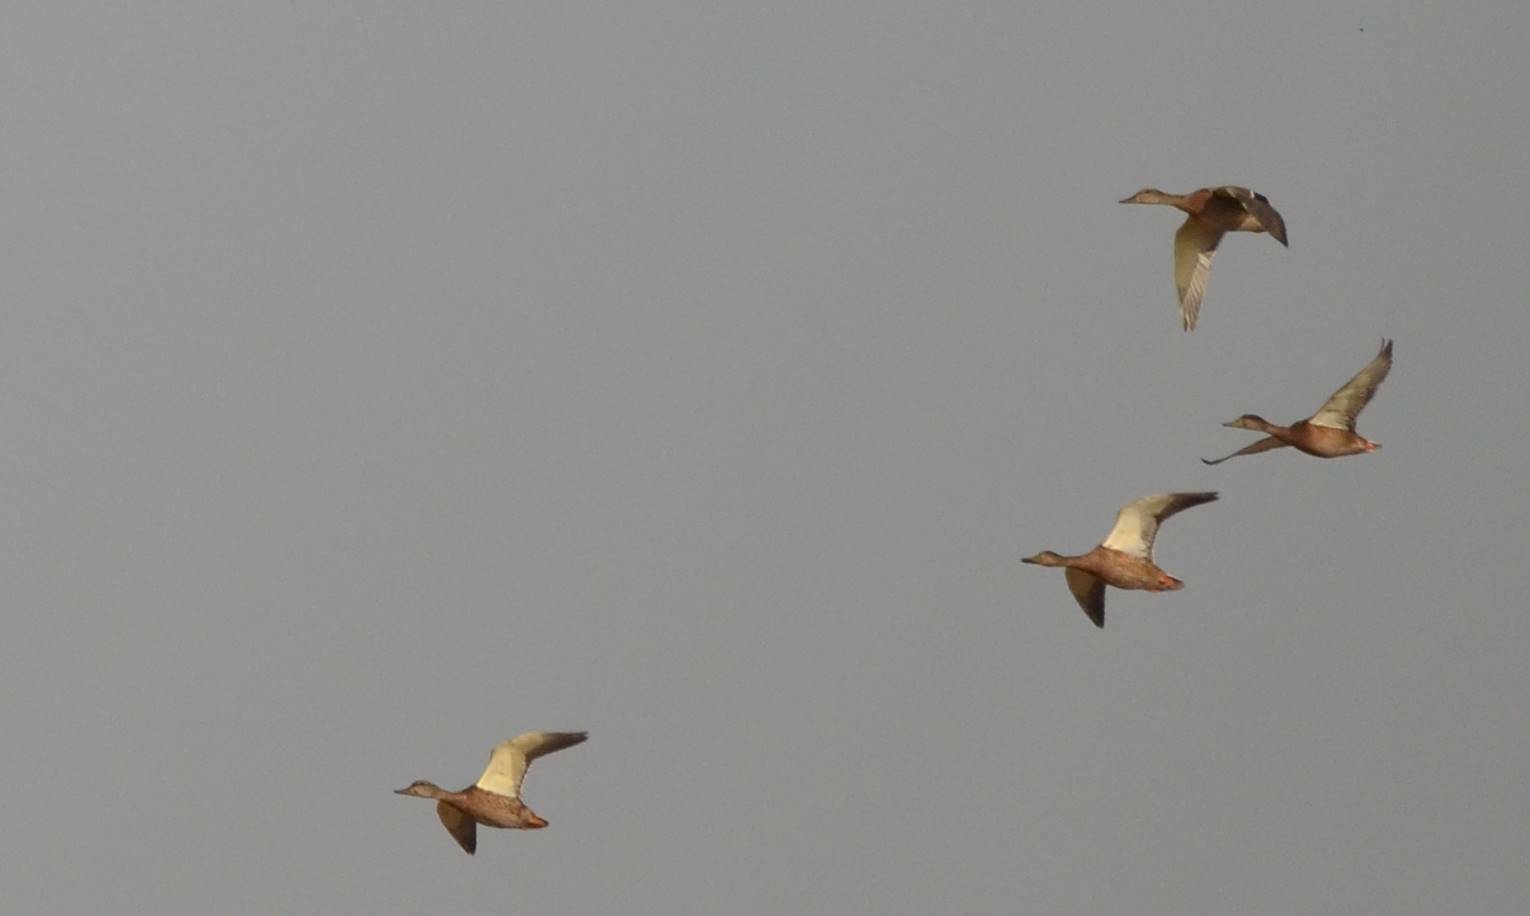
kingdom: Animalia
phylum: Chordata
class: Aves
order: Anseriformes
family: Anatidae
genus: Anas
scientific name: Anas platyrhynchos
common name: Mallard
